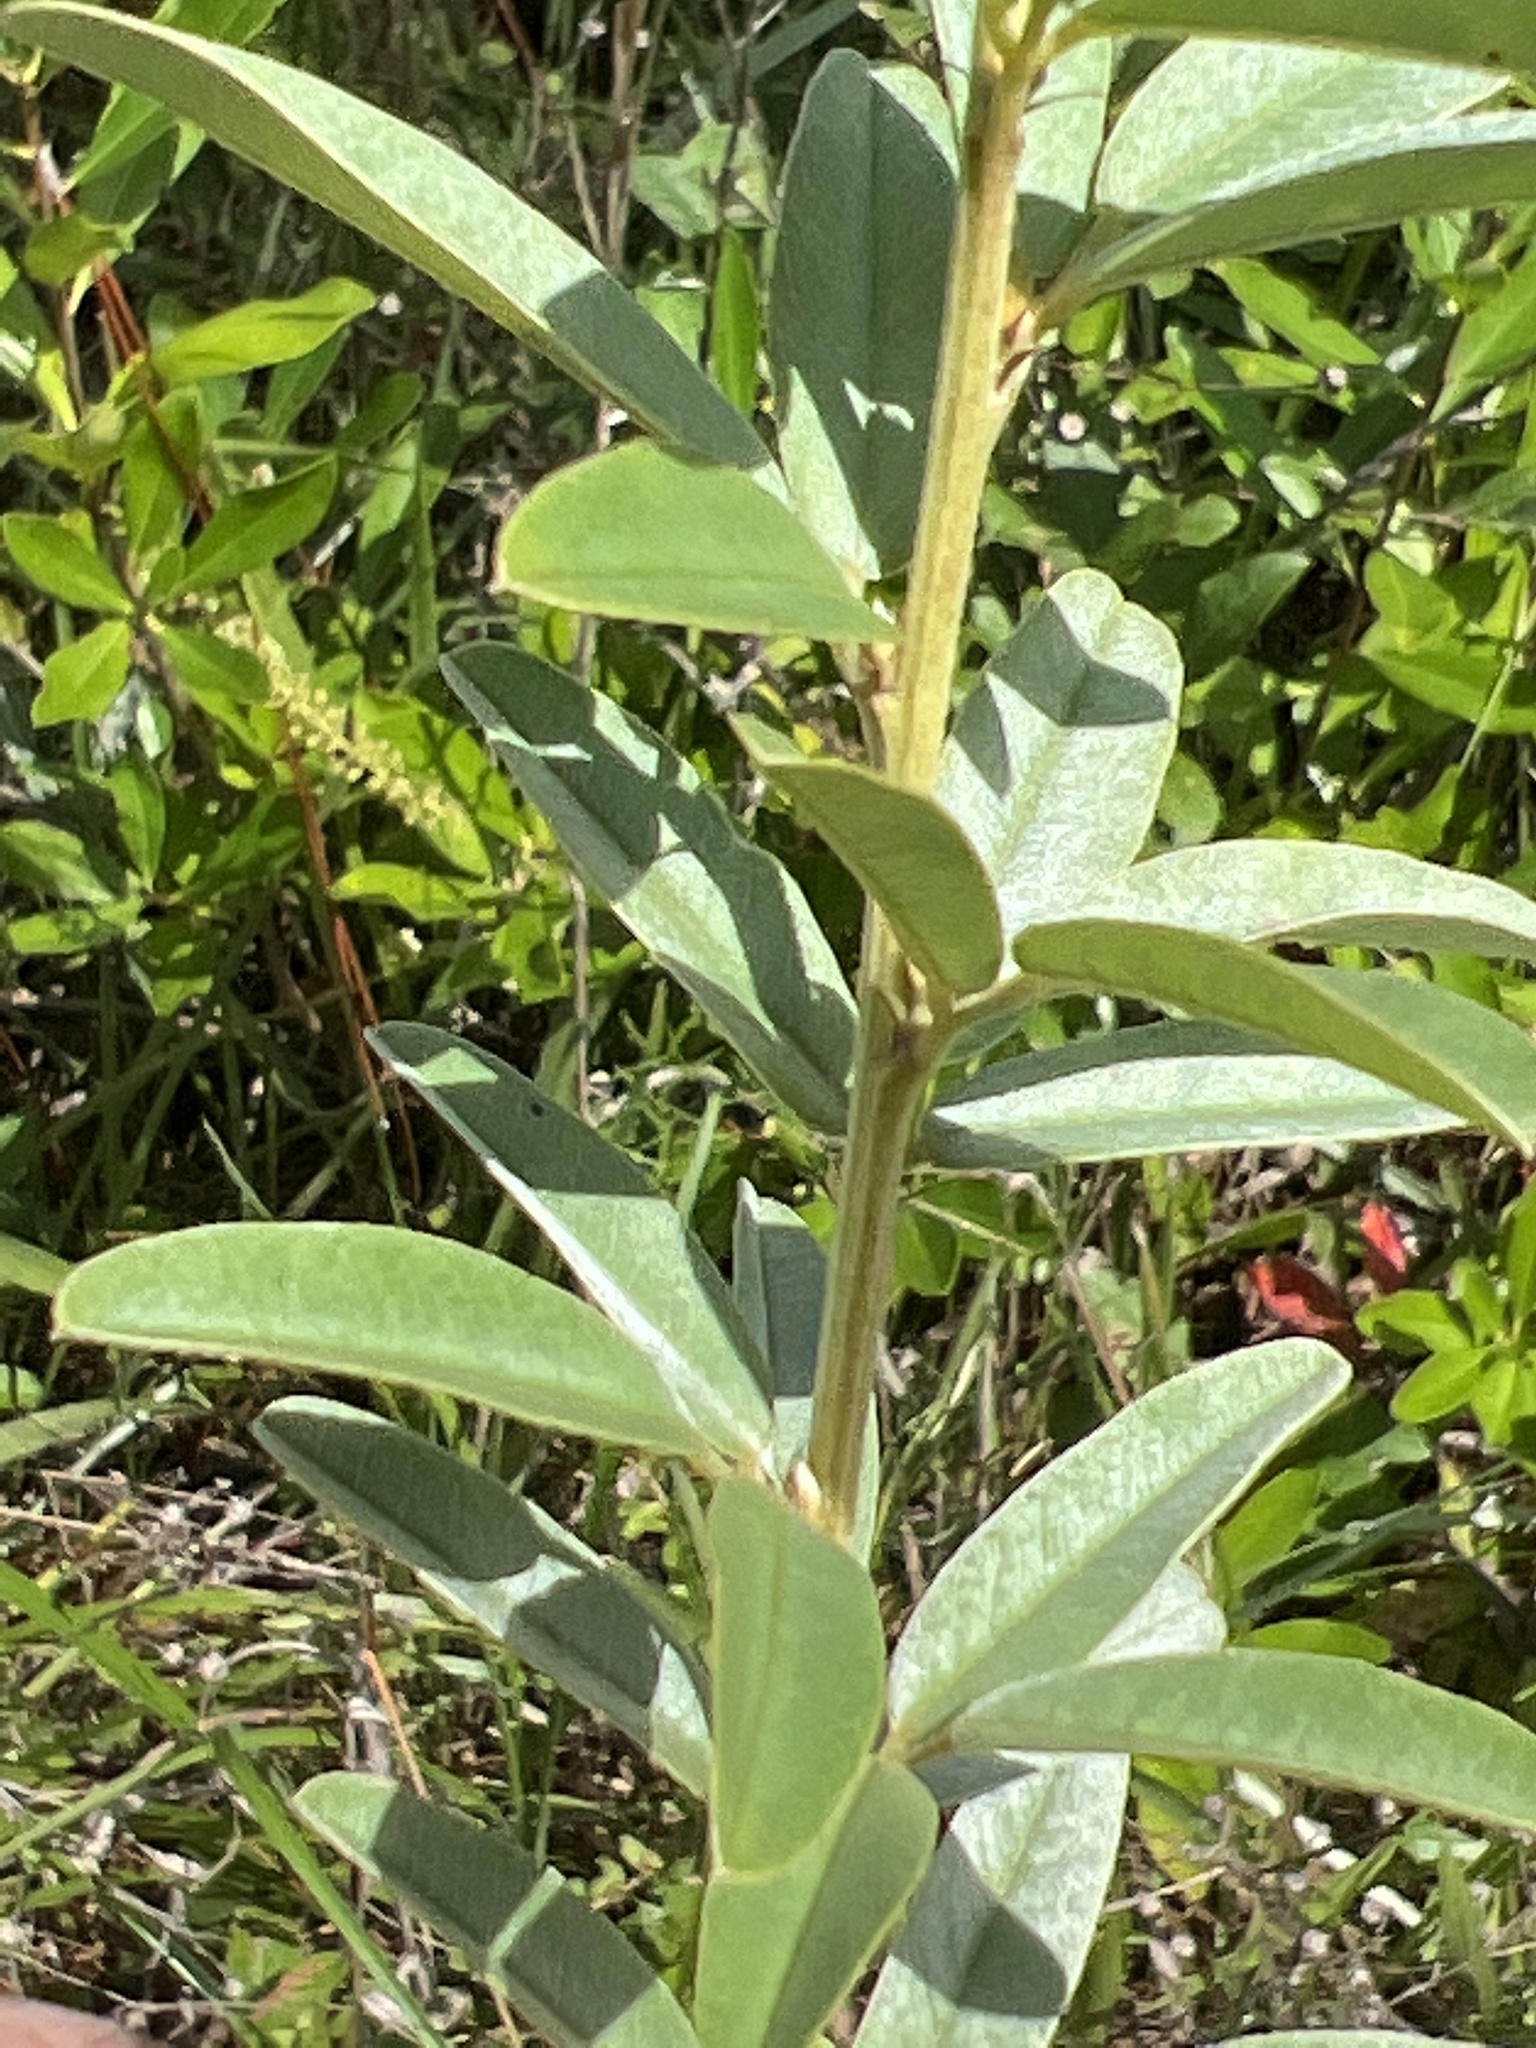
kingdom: Plantae
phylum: Tracheophyta
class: Magnoliopsida
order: Fabales
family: Fabaceae
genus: Lespedeza
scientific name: Lespedeza capitata
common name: Dusty clover
